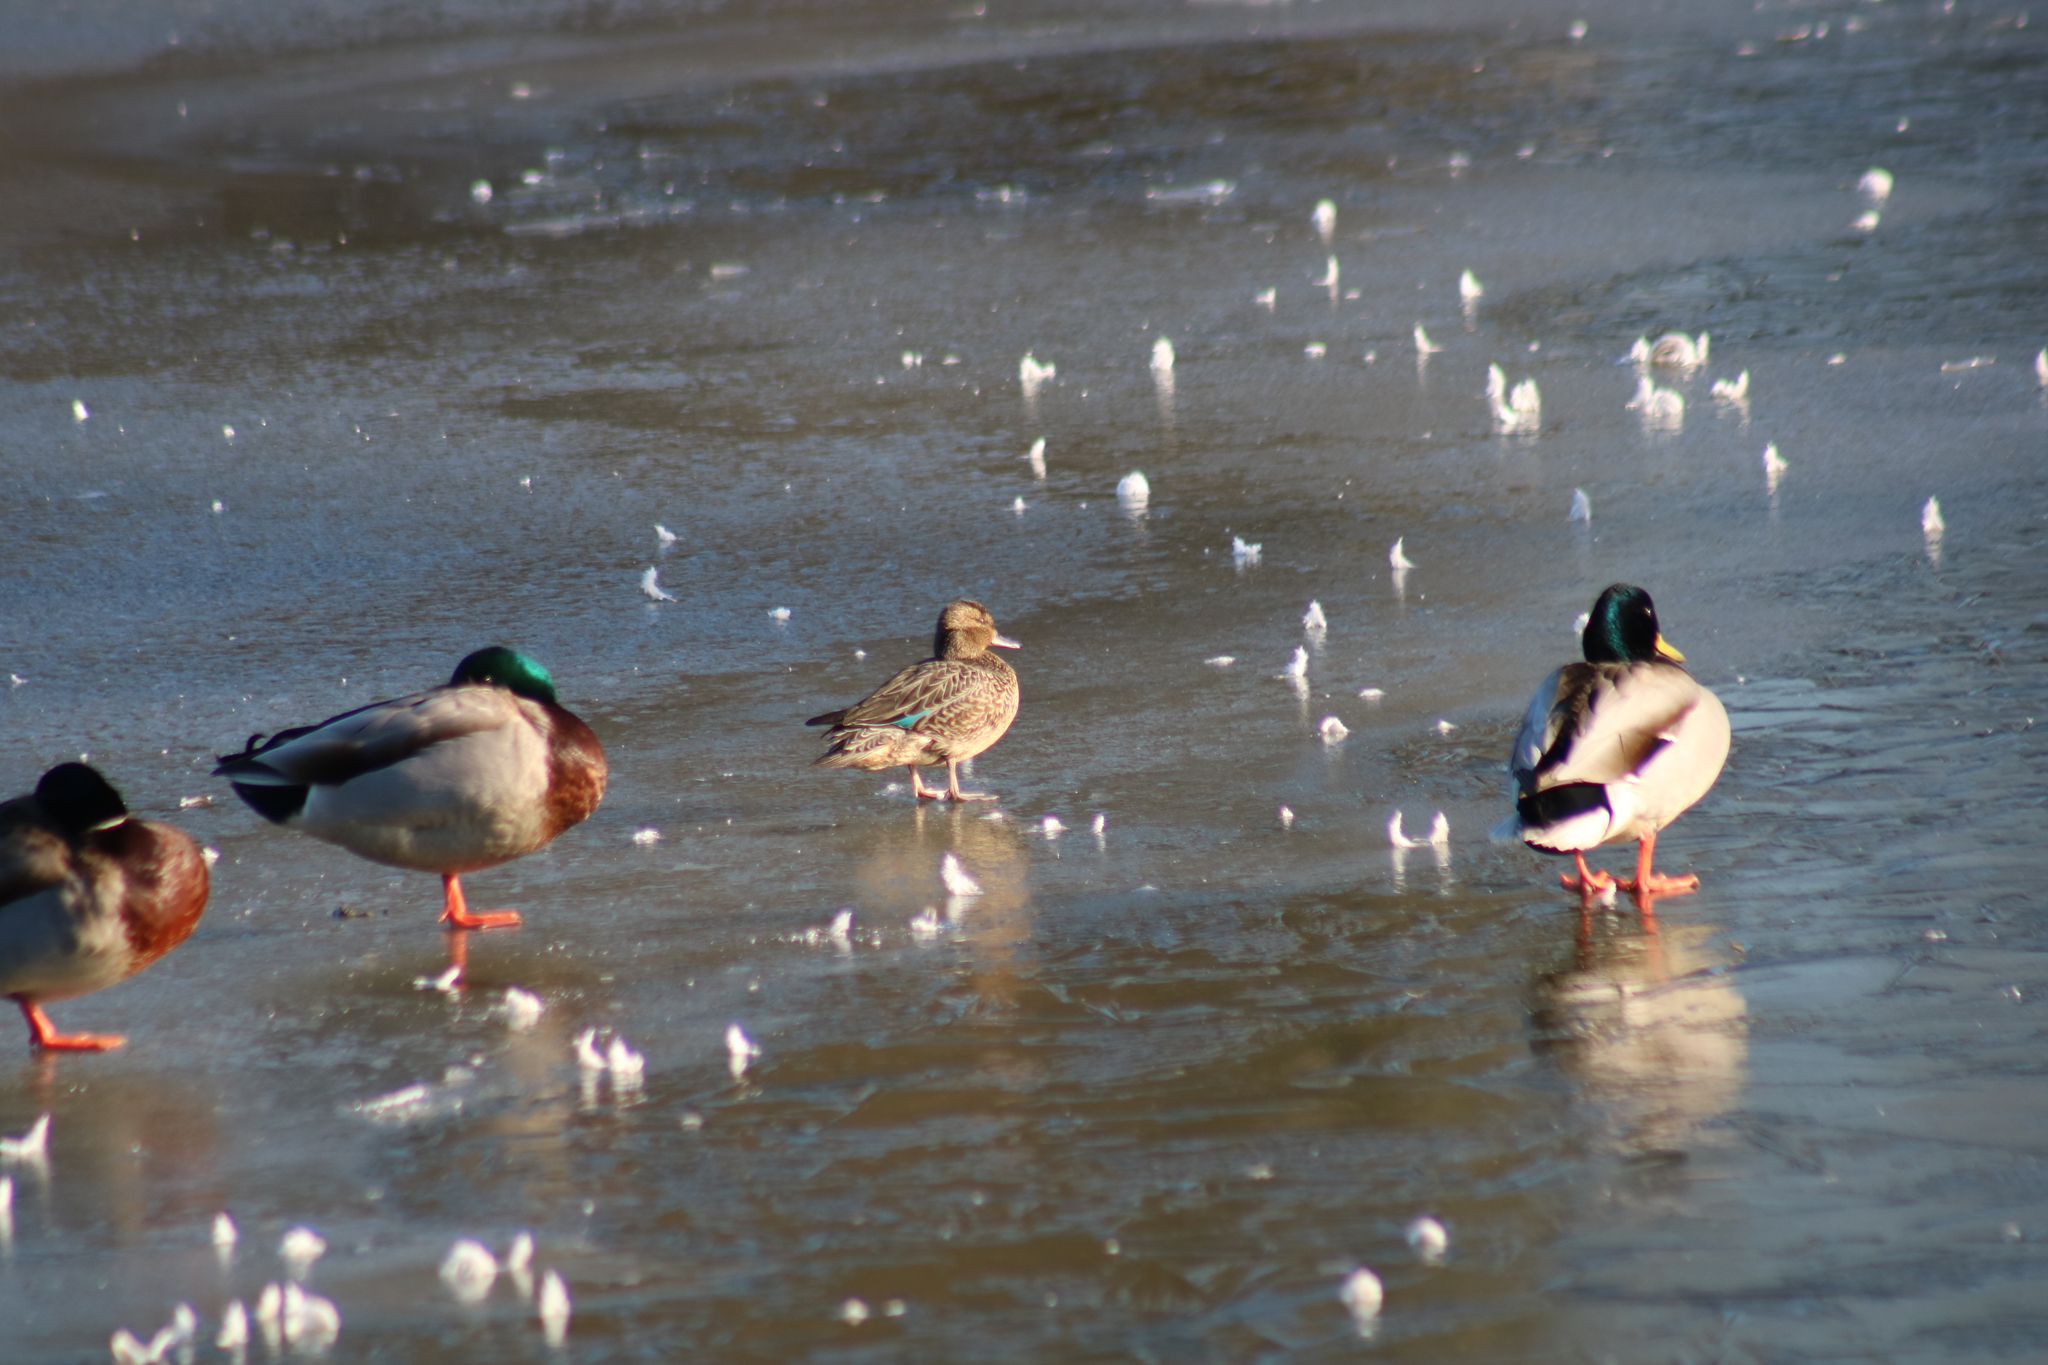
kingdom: Animalia
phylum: Chordata
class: Aves
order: Anseriformes
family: Anatidae
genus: Anas
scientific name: Anas crecca
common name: Eurasian teal
